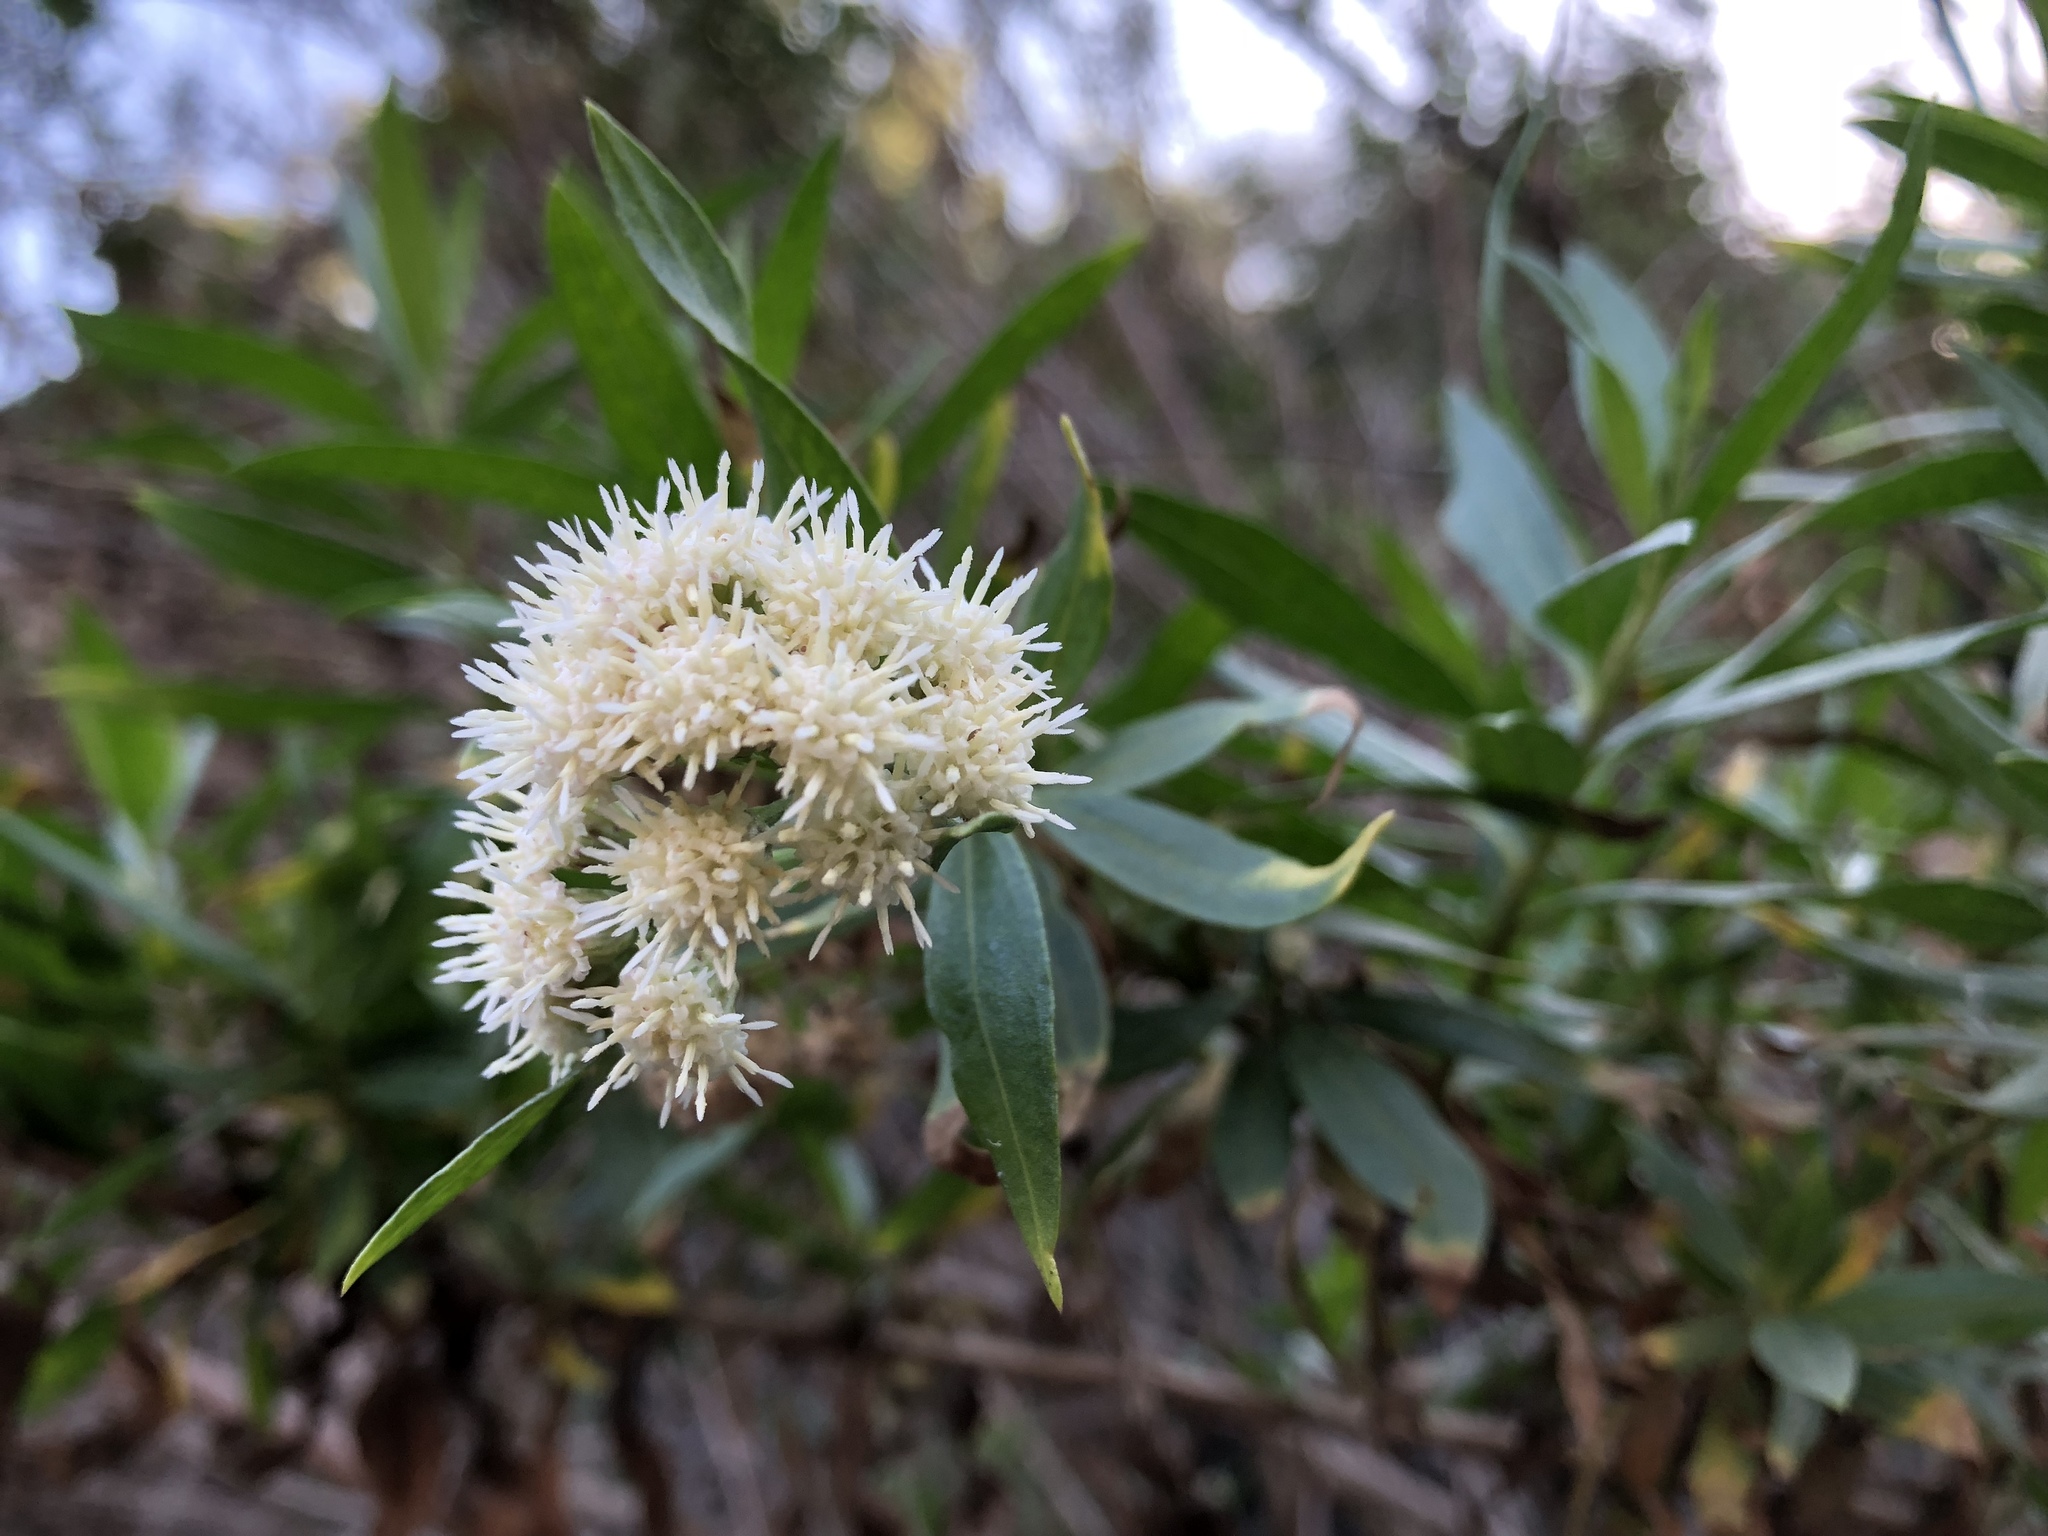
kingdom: Plantae
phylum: Tracheophyta
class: Magnoliopsida
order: Asterales
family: Asteraceae
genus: Baccharis
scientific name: Baccharis salicifolia
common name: Sticky baccharis
